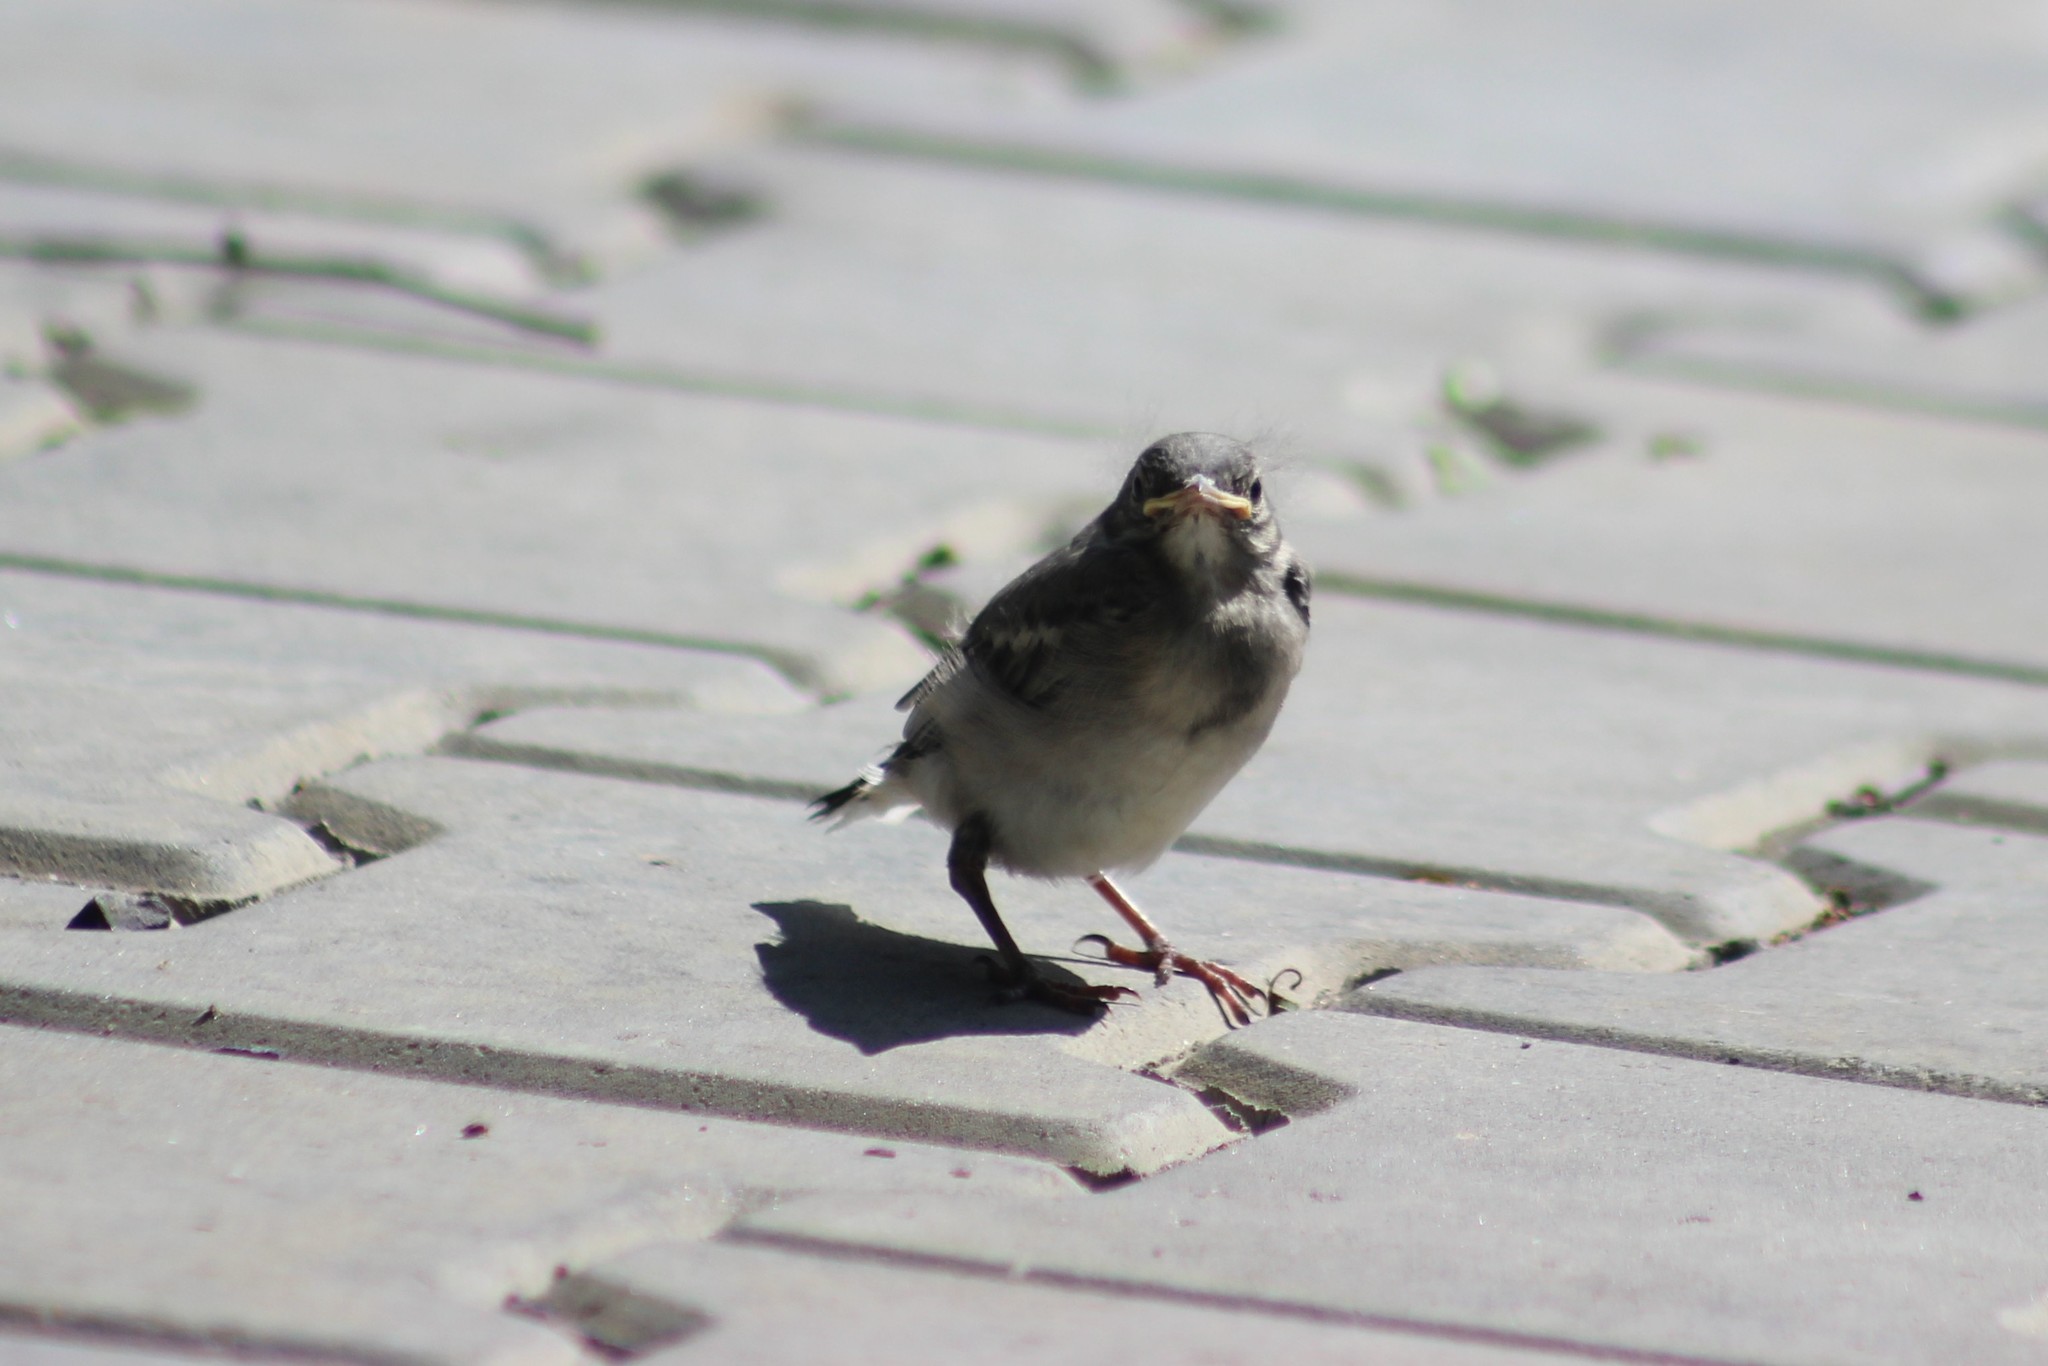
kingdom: Animalia
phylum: Chordata
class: Aves
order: Passeriformes
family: Motacillidae
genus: Motacilla
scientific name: Motacilla alba
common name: White wagtail
